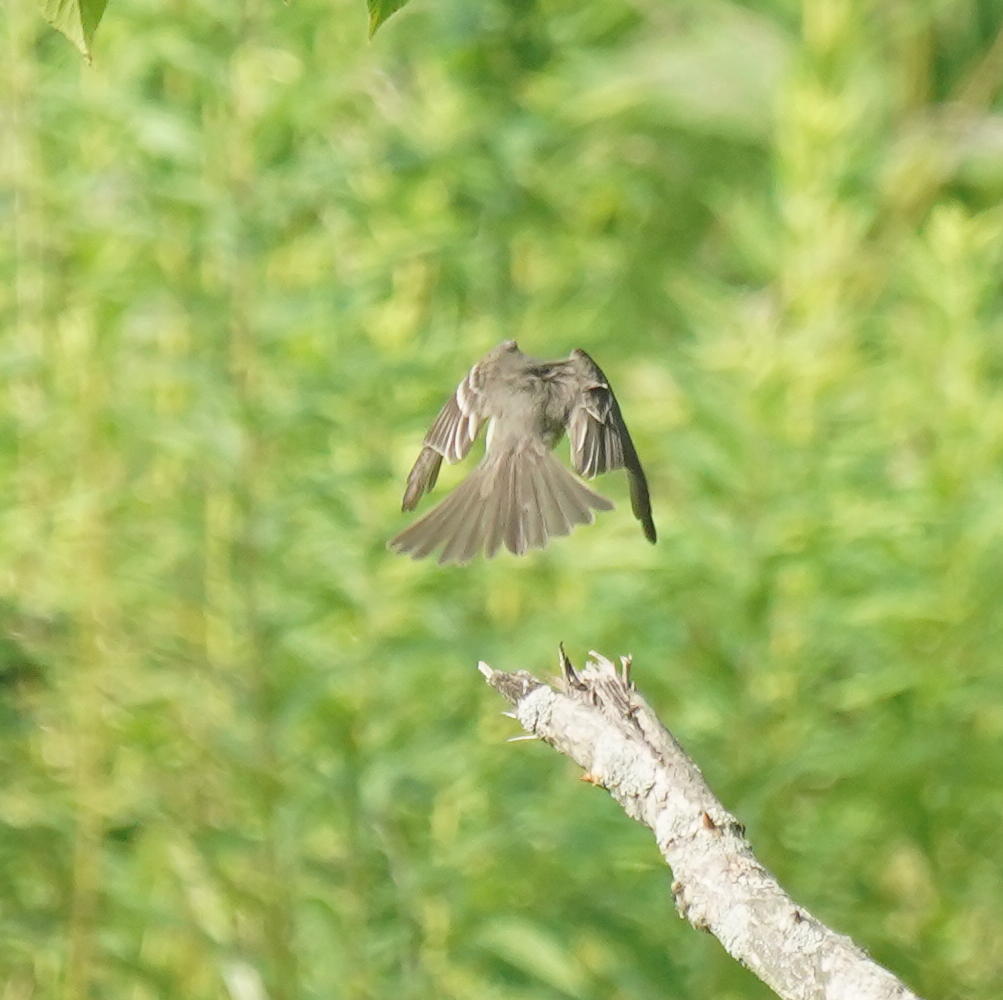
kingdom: Animalia
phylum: Chordata
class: Aves
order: Passeriformes
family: Tyrannidae
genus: Contopus
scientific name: Contopus virens
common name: Eastern wood-pewee
